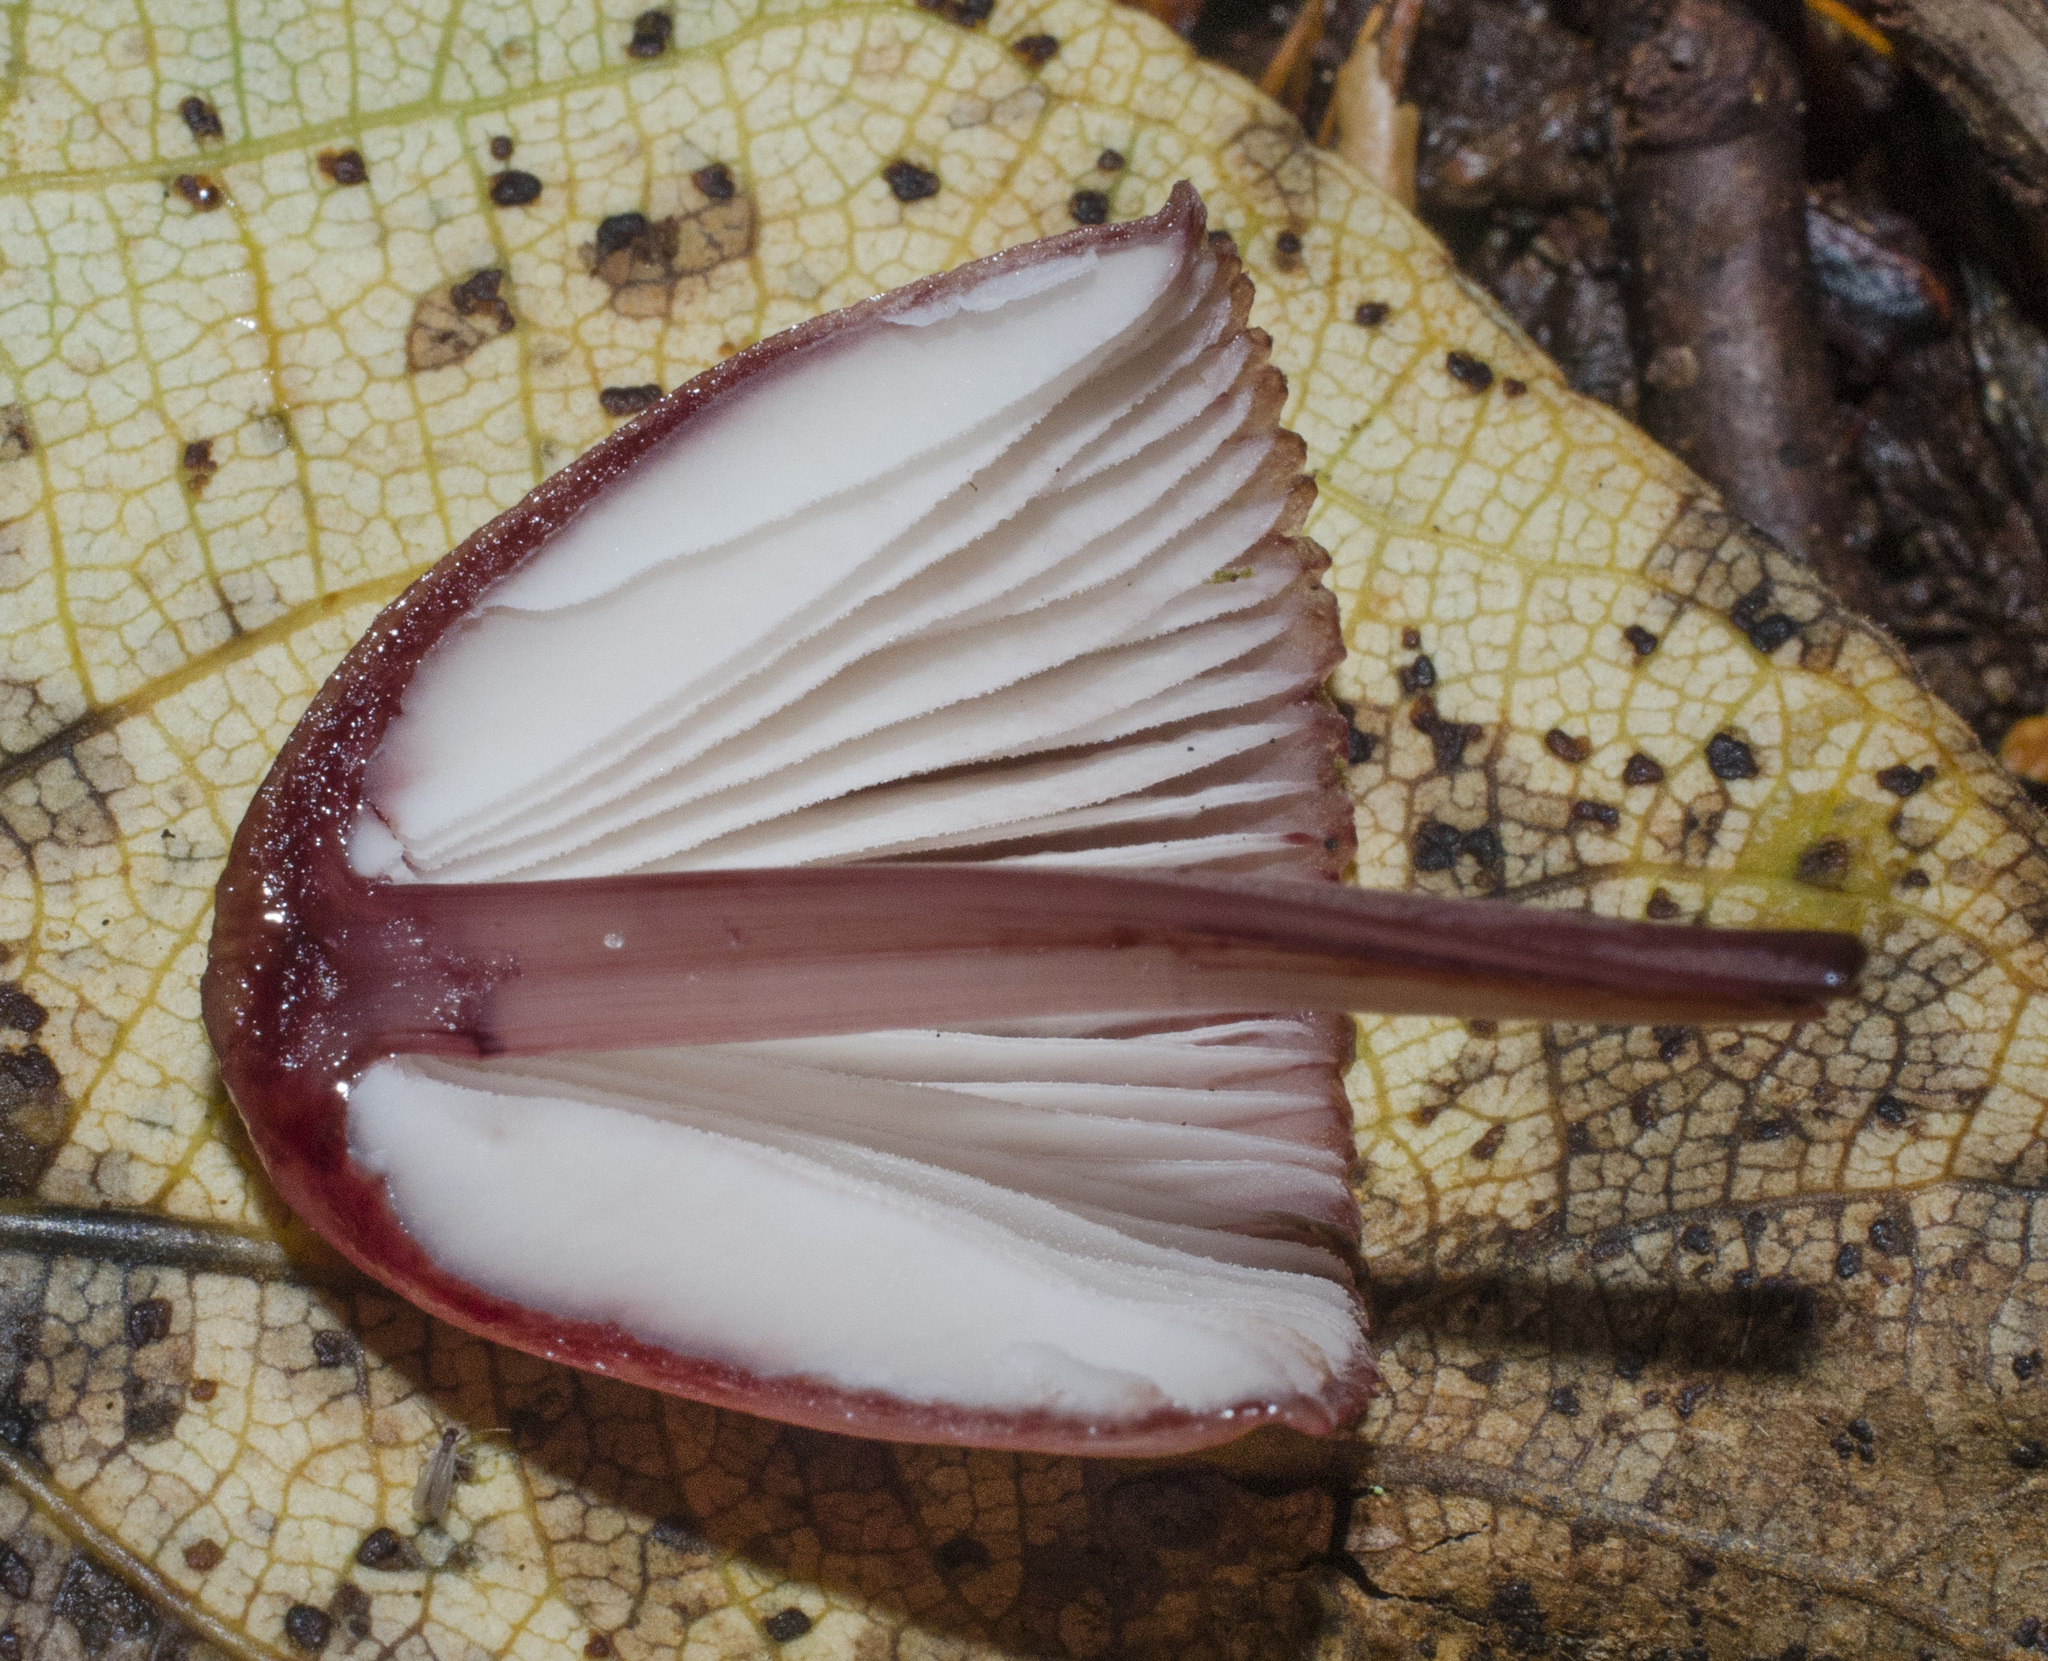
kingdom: Fungi
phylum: Basidiomycota
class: Agaricomycetes
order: Agaricales
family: Mycenaceae
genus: Mycena
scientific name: Mycena haematopus
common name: Burgundydrop bonnet
